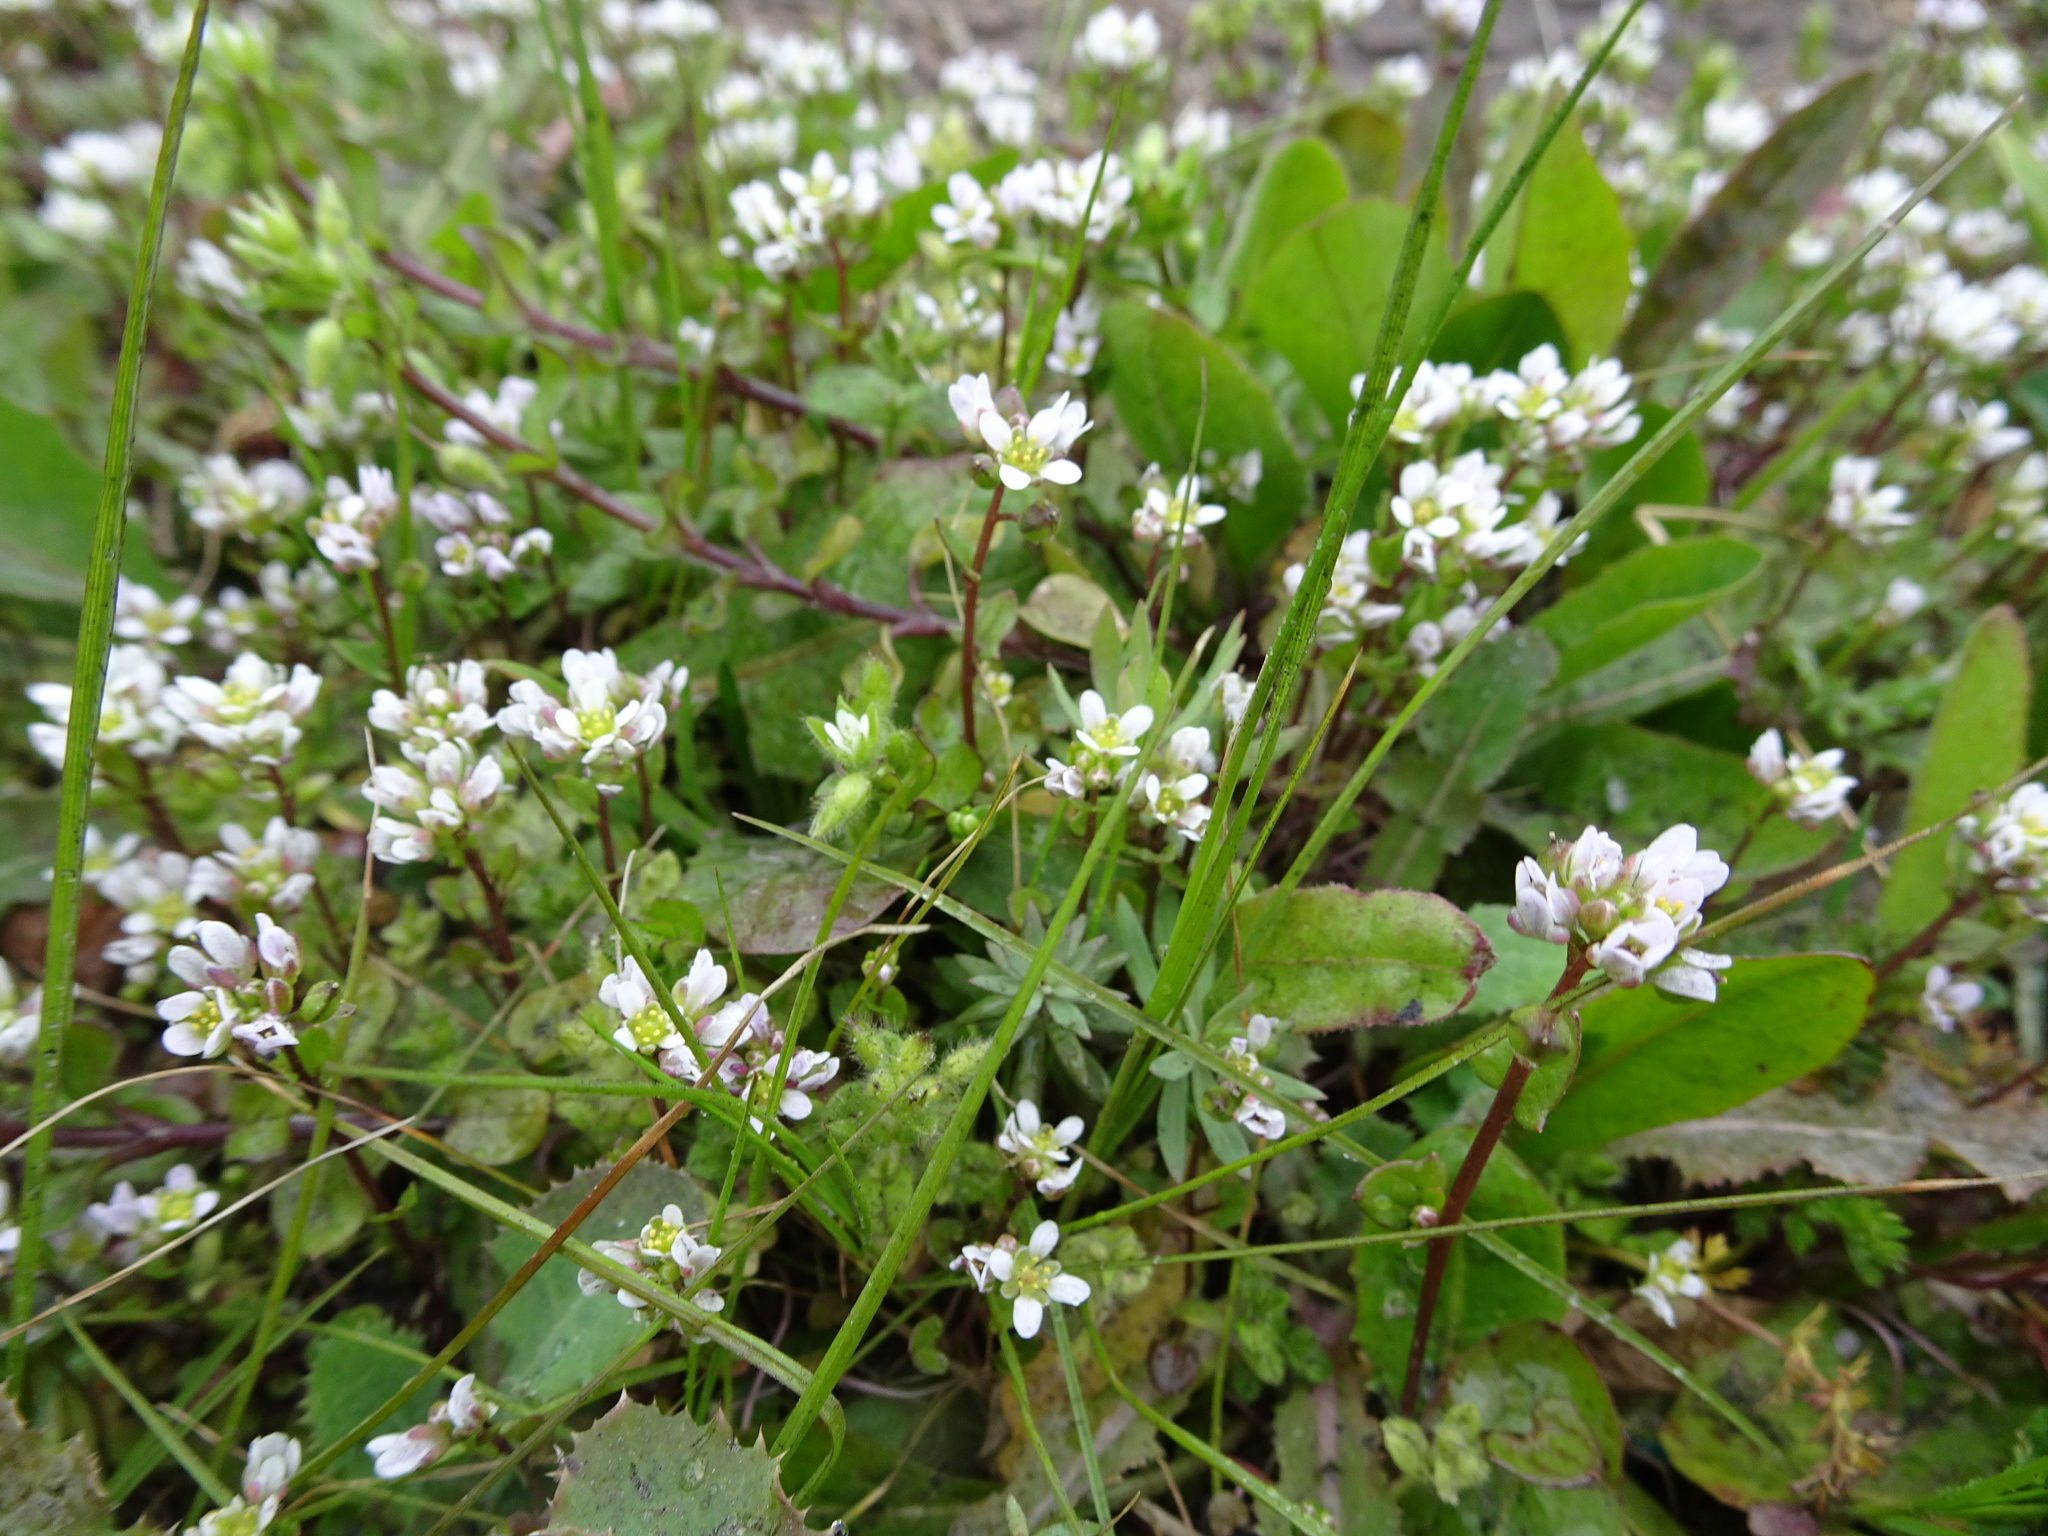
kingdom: Plantae
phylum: Tracheophyta
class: Magnoliopsida
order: Brassicales
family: Brassicaceae
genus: Cochlearia
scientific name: Cochlearia danica
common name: Early scurvygrass
